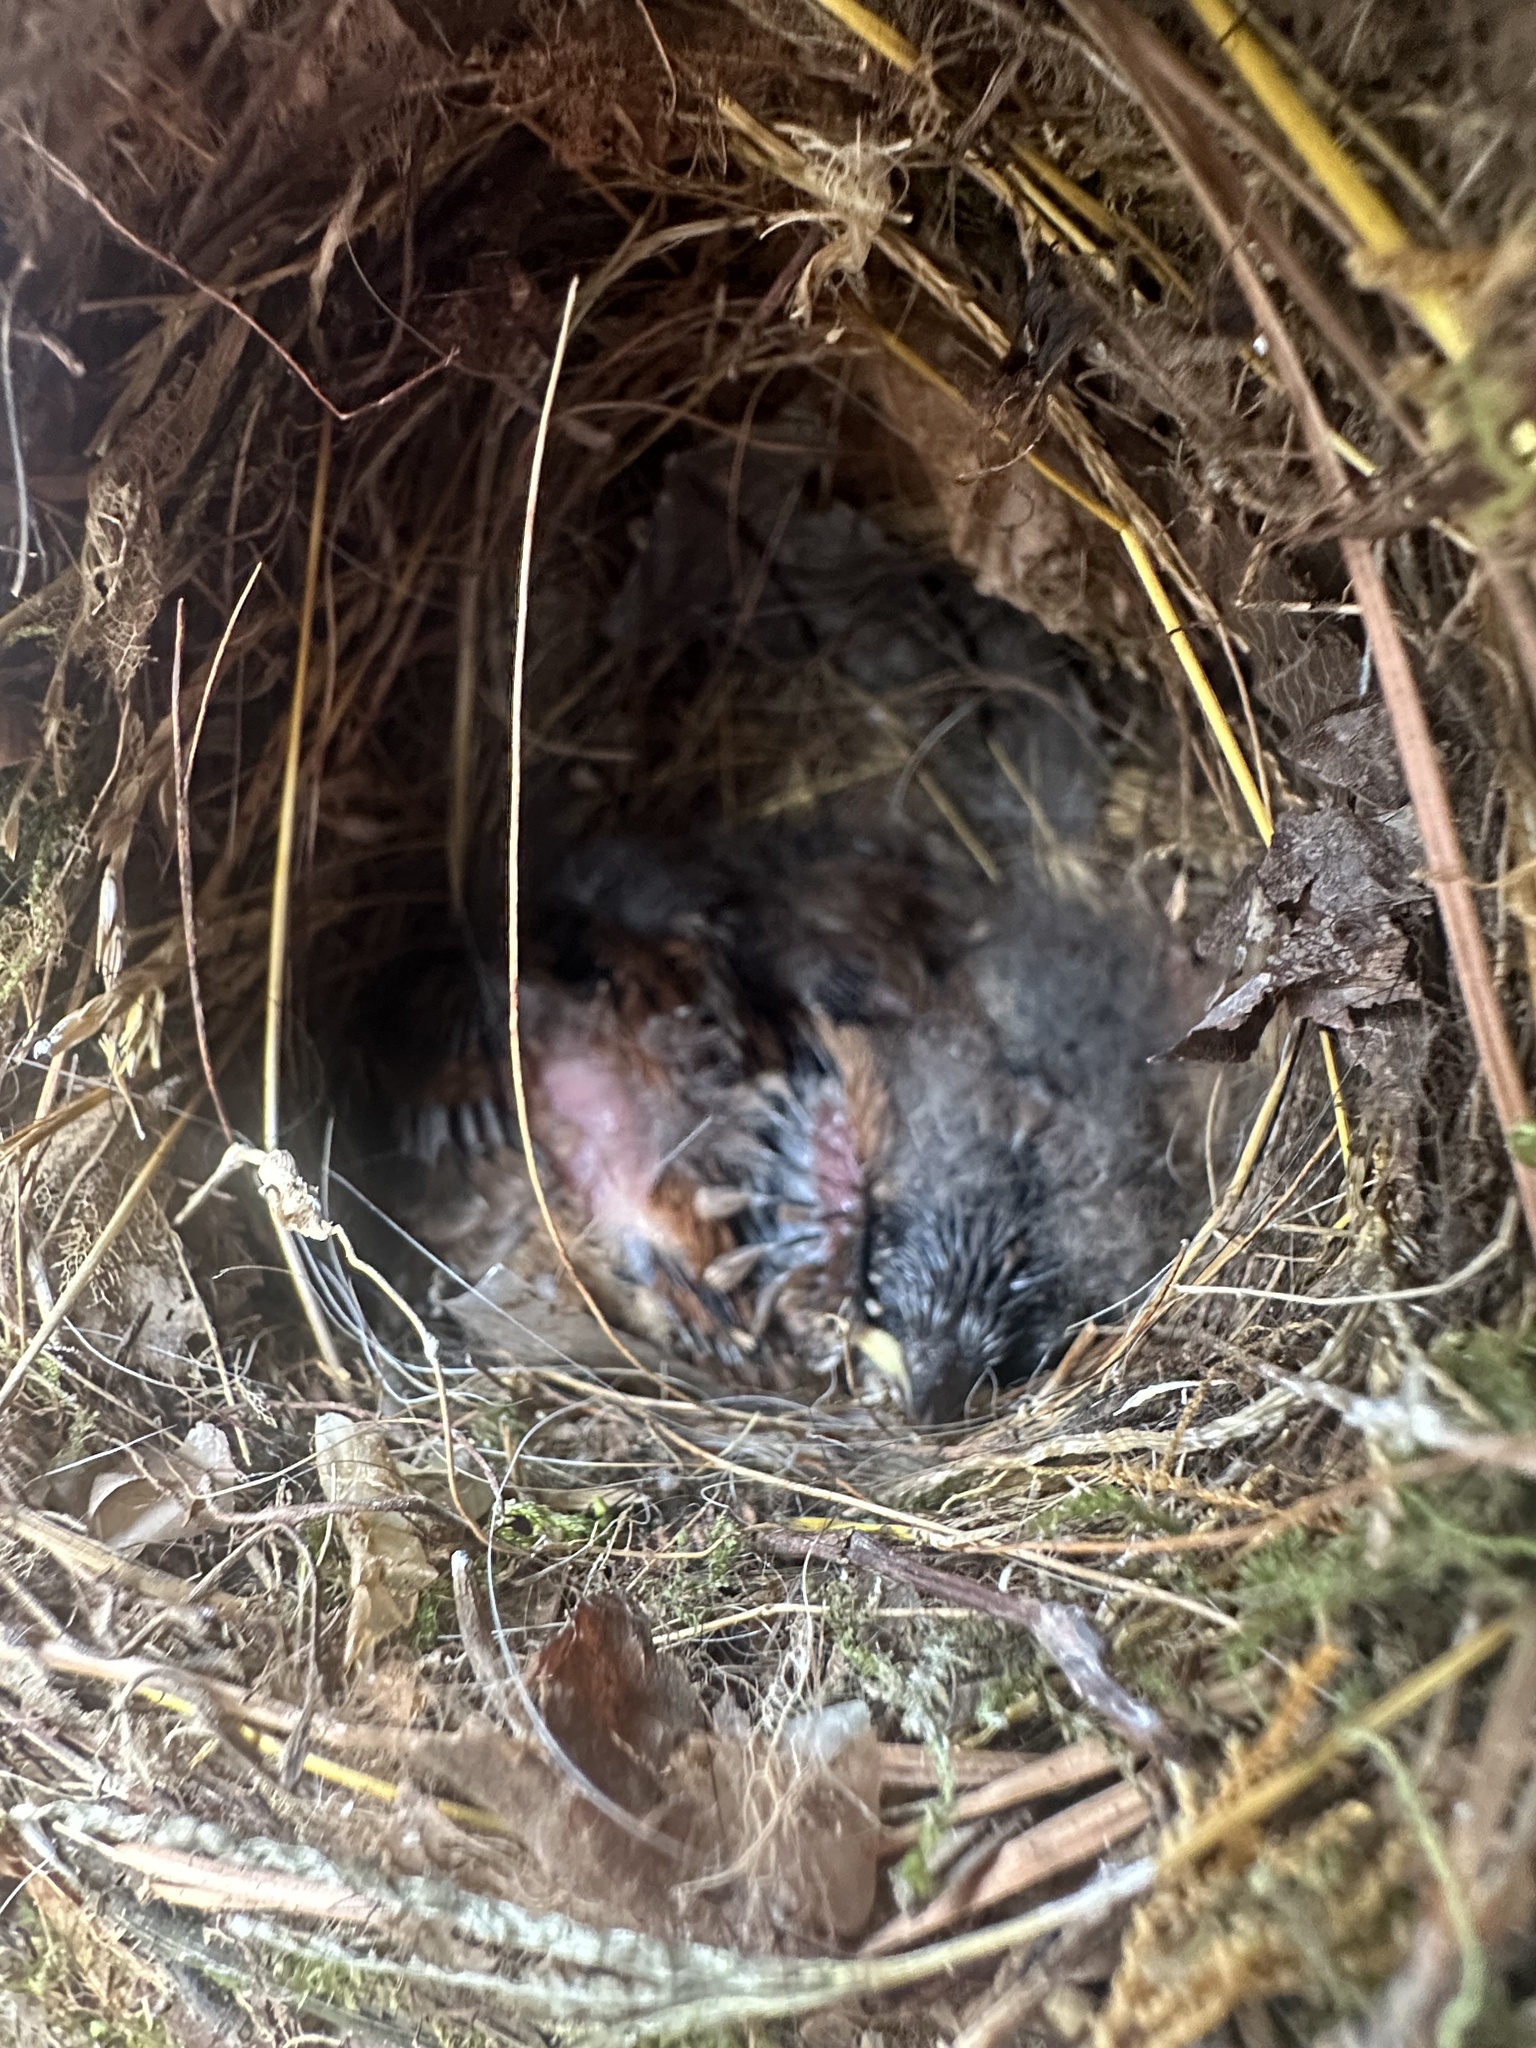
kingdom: Animalia
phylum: Chordata
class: Aves
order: Passeriformes
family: Troglodytidae
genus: Thryothorus
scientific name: Thryothorus ludovicianus
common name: Carolina wren
